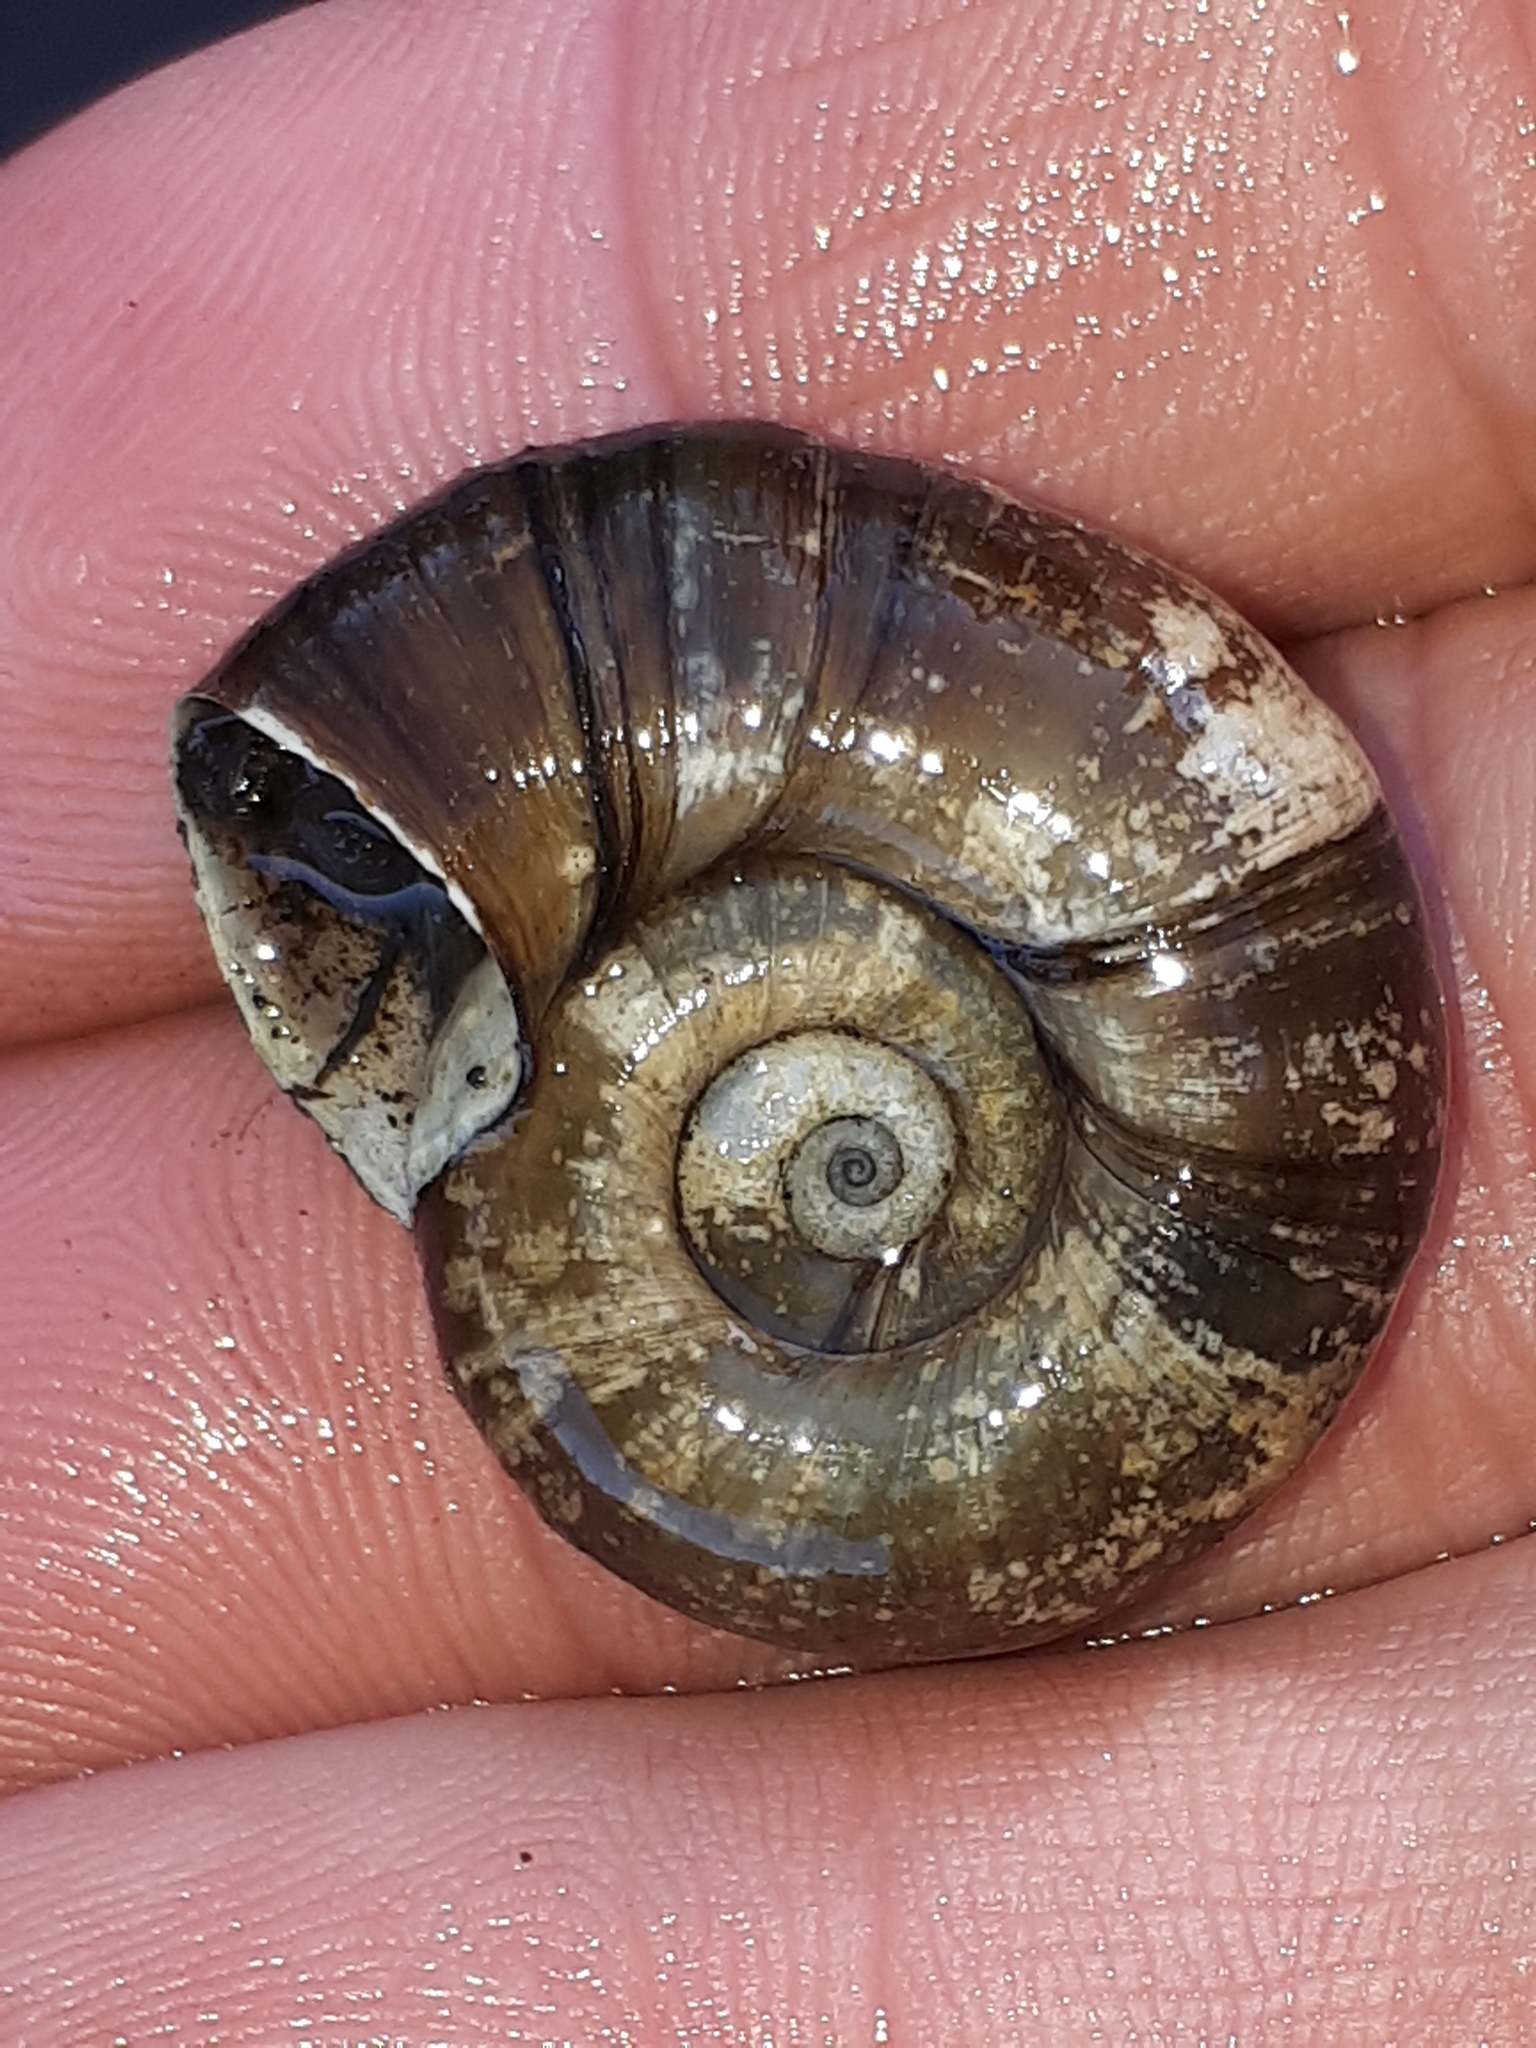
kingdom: Animalia
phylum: Mollusca
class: Gastropoda
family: Planorbidae
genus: Planorbarius
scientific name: Planorbarius corneus
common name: Great ramshorn
